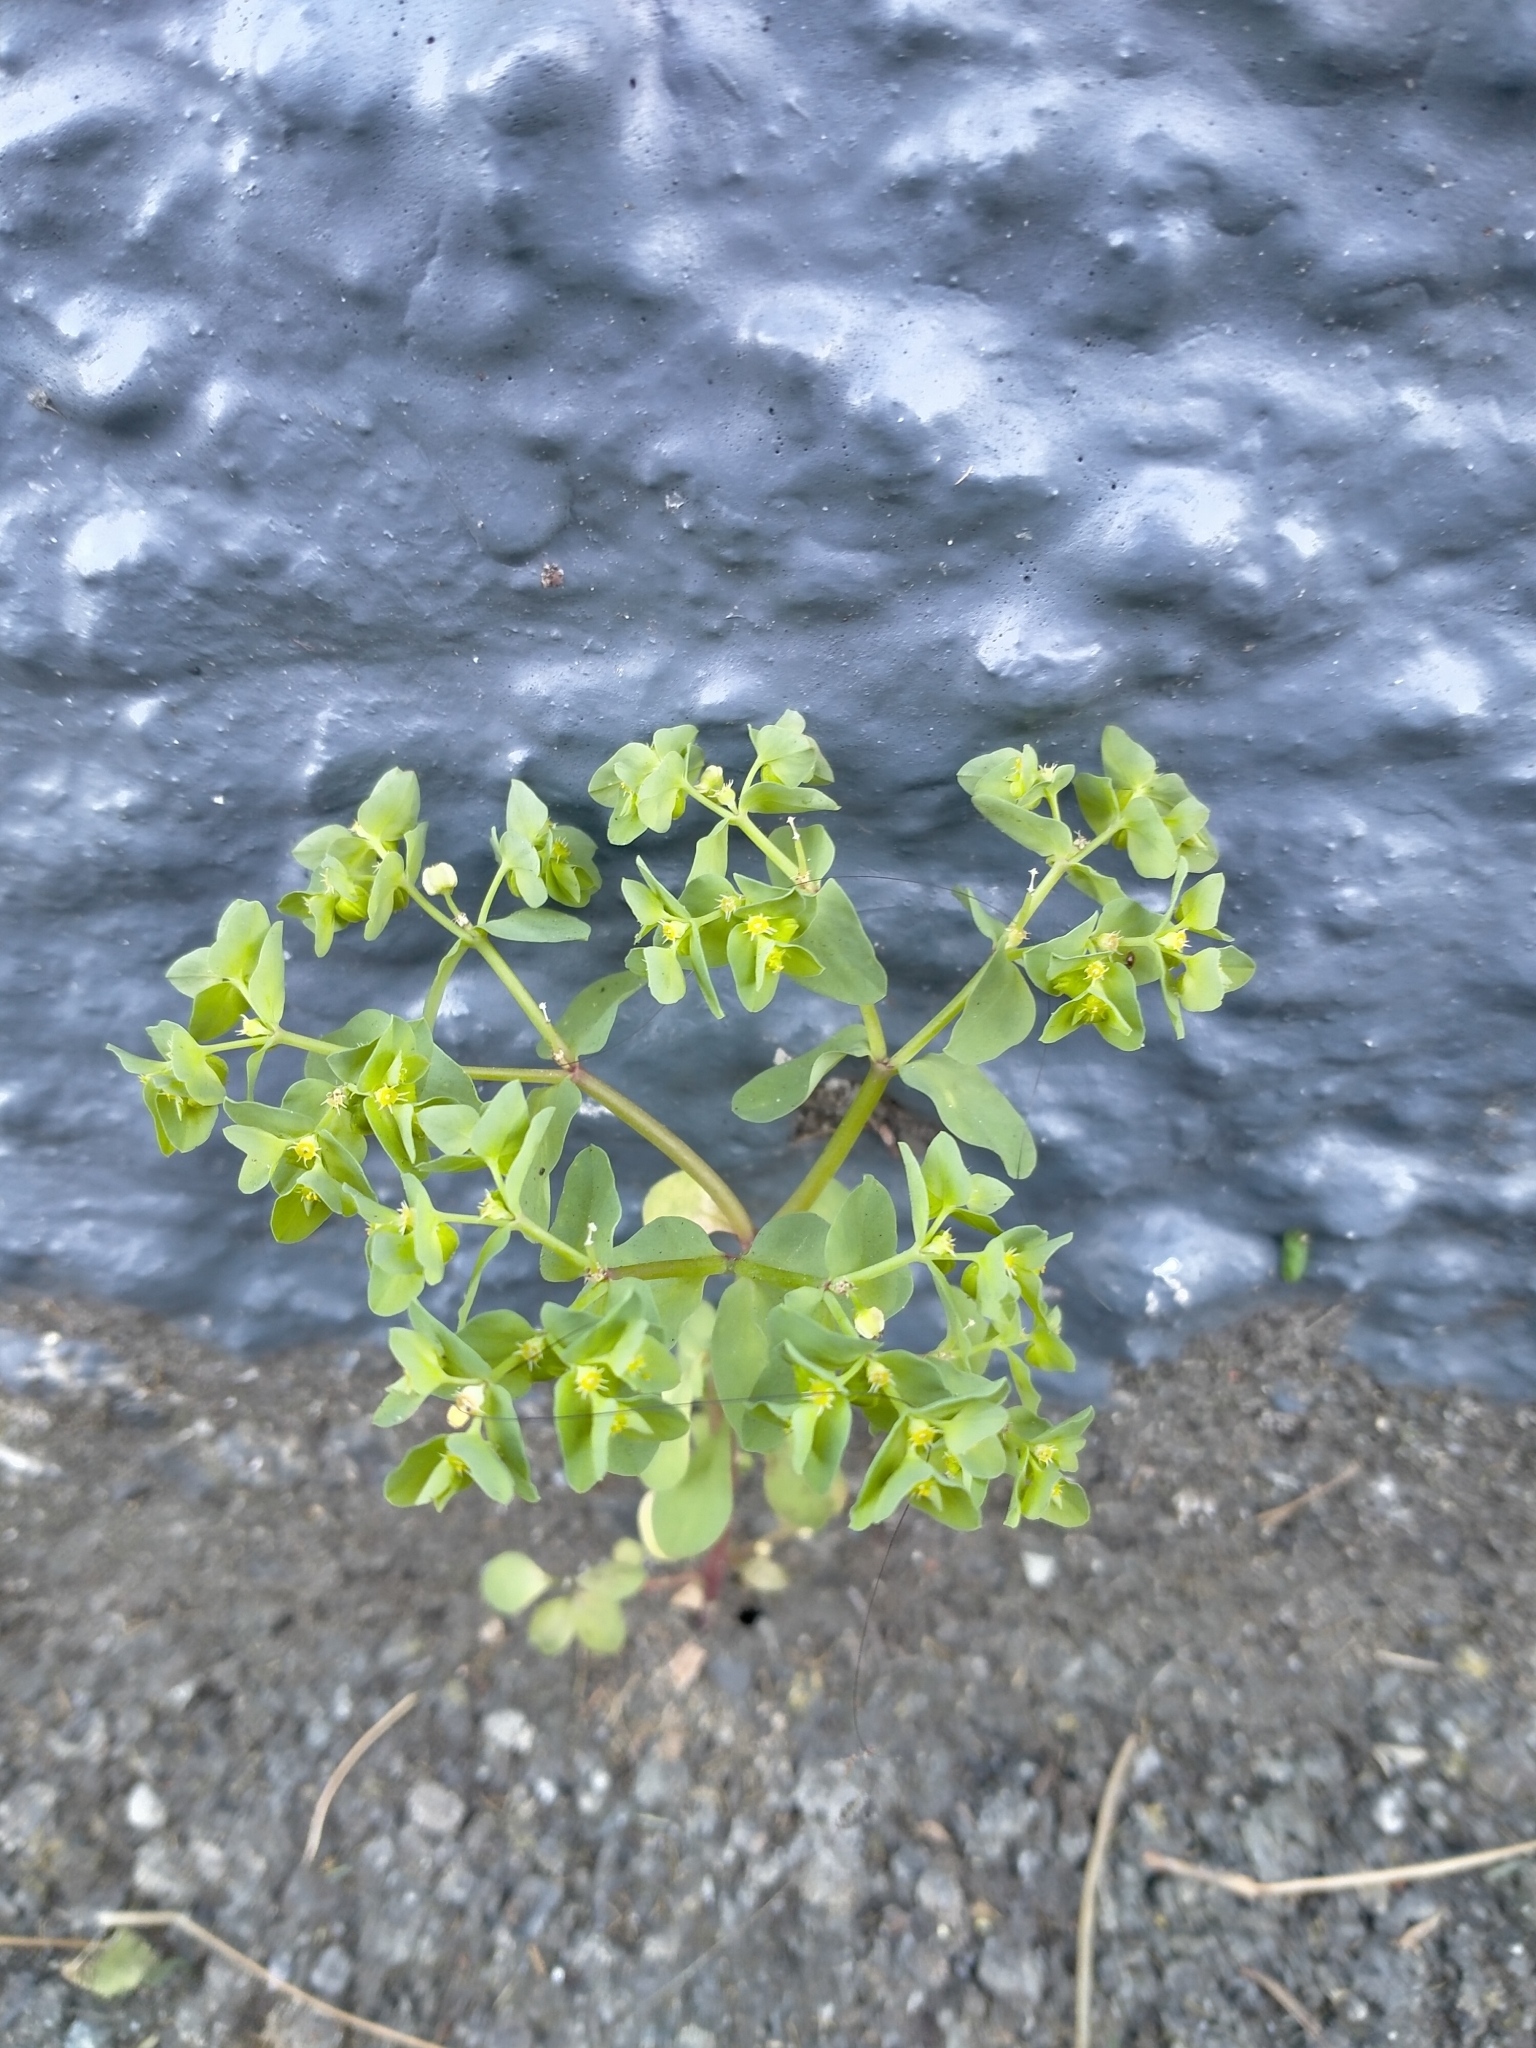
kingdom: Plantae
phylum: Tracheophyta
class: Magnoliopsida
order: Malpighiales
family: Euphorbiaceae
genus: Euphorbia
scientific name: Euphorbia peplus
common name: Petty spurge
